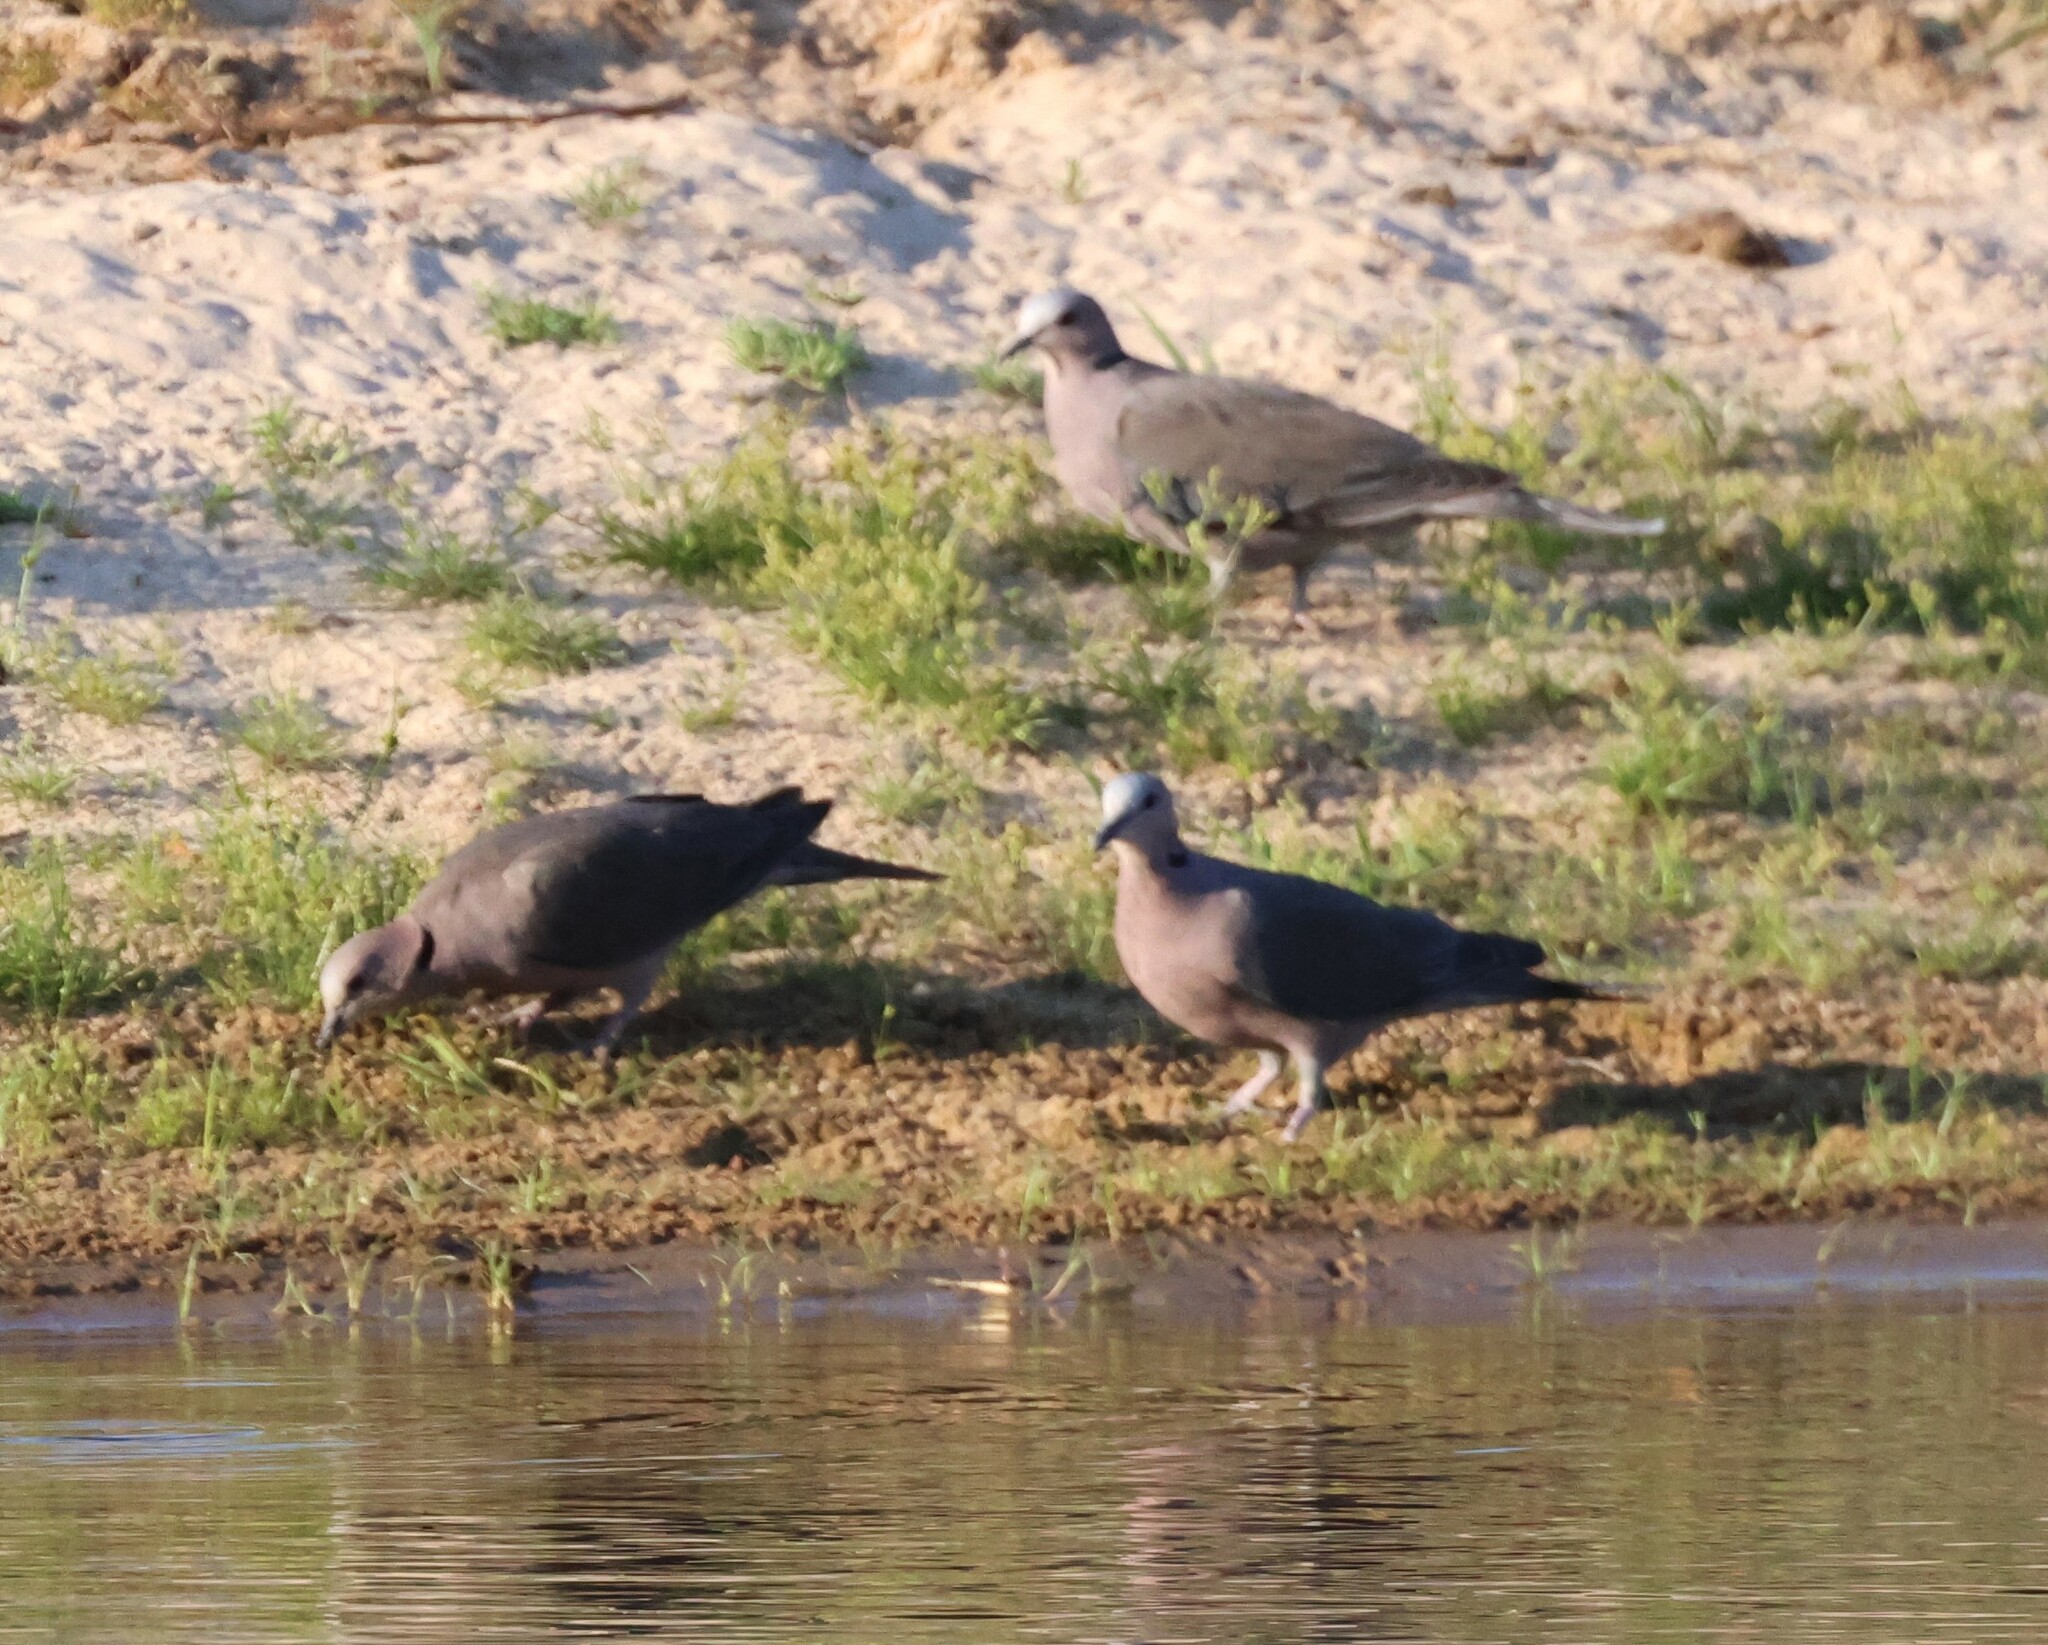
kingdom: Animalia
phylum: Chordata
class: Aves
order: Columbiformes
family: Columbidae
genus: Streptopelia
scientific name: Streptopelia semitorquata
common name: Red-eyed dove
